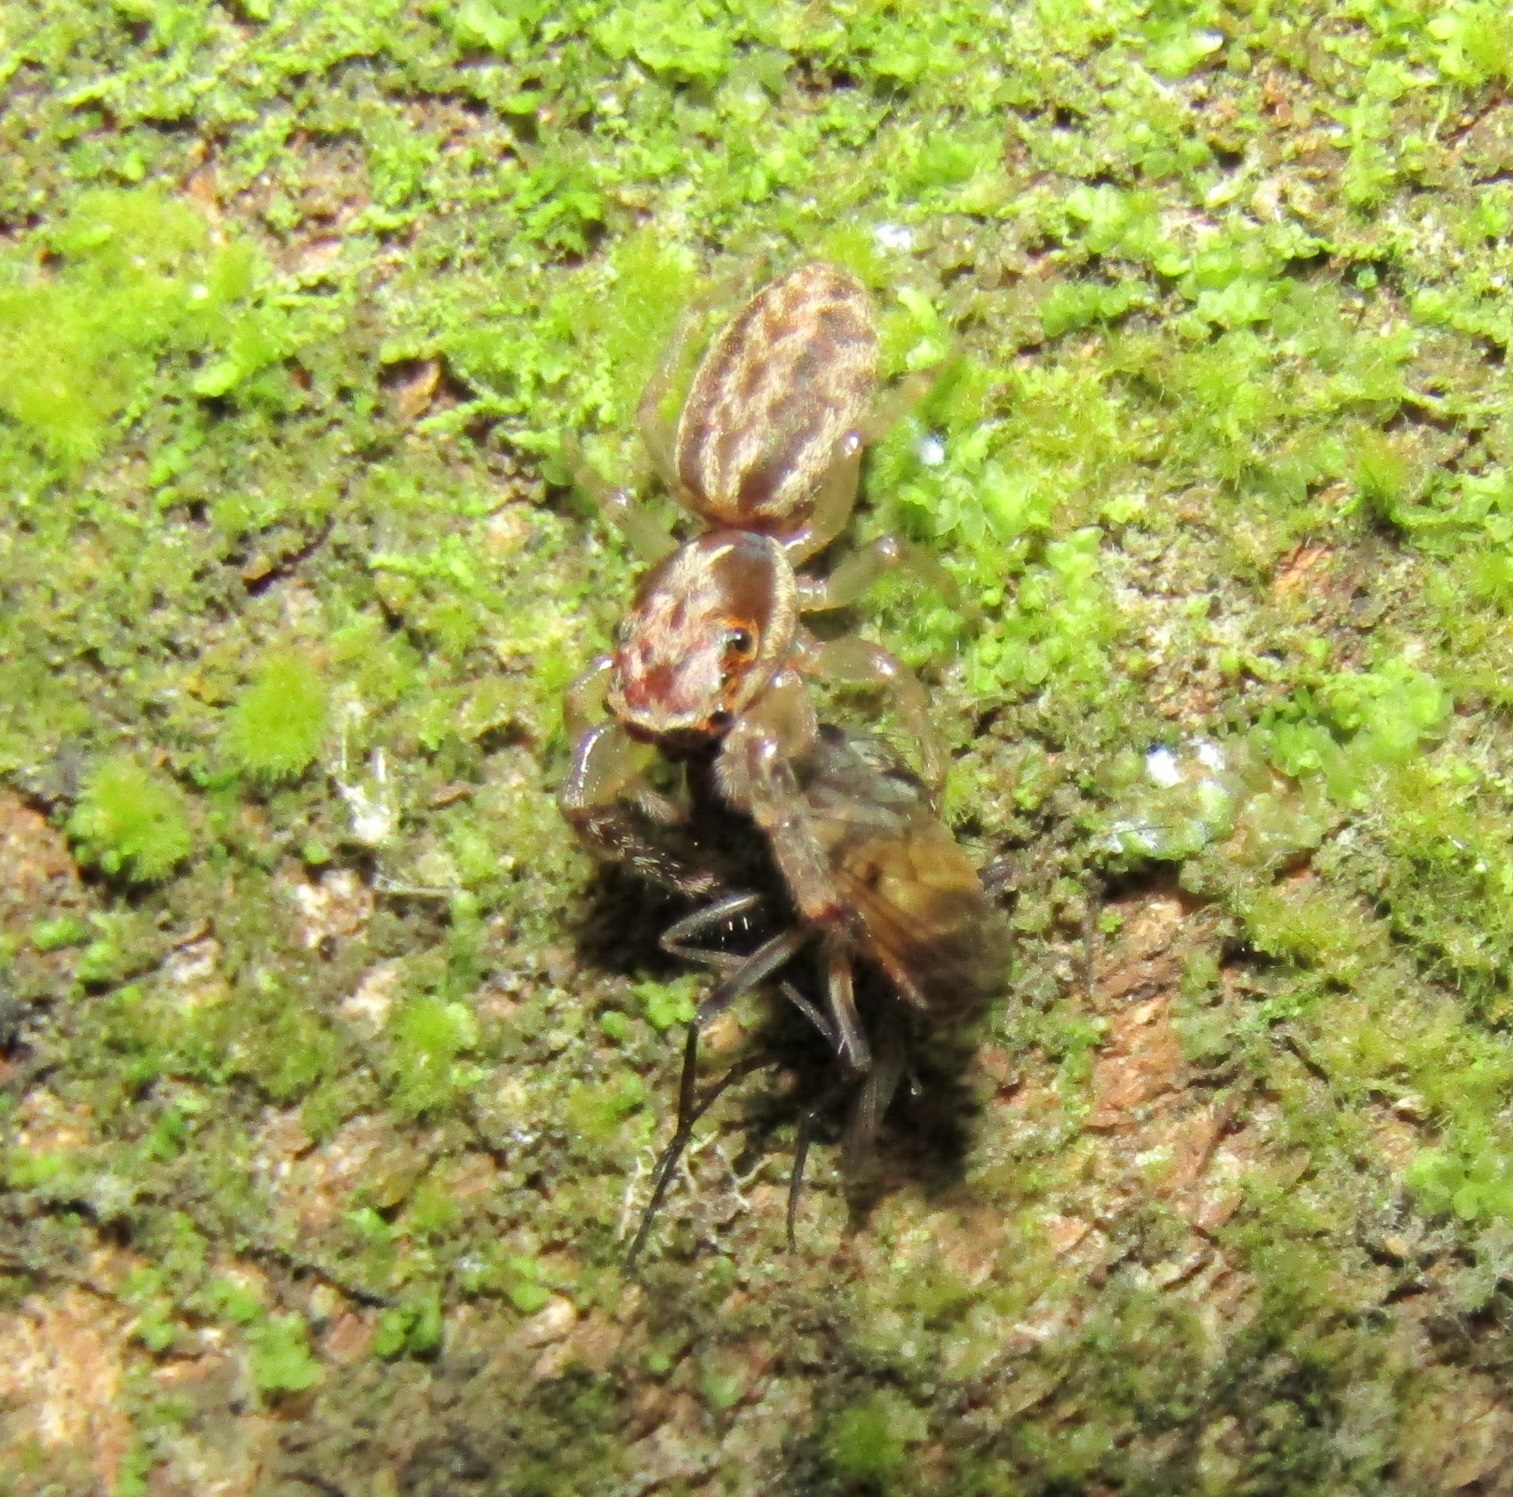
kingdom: Animalia
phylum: Arthropoda
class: Arachnida
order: Araneae
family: Salticidae
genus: Trite
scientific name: Trite mustilina
